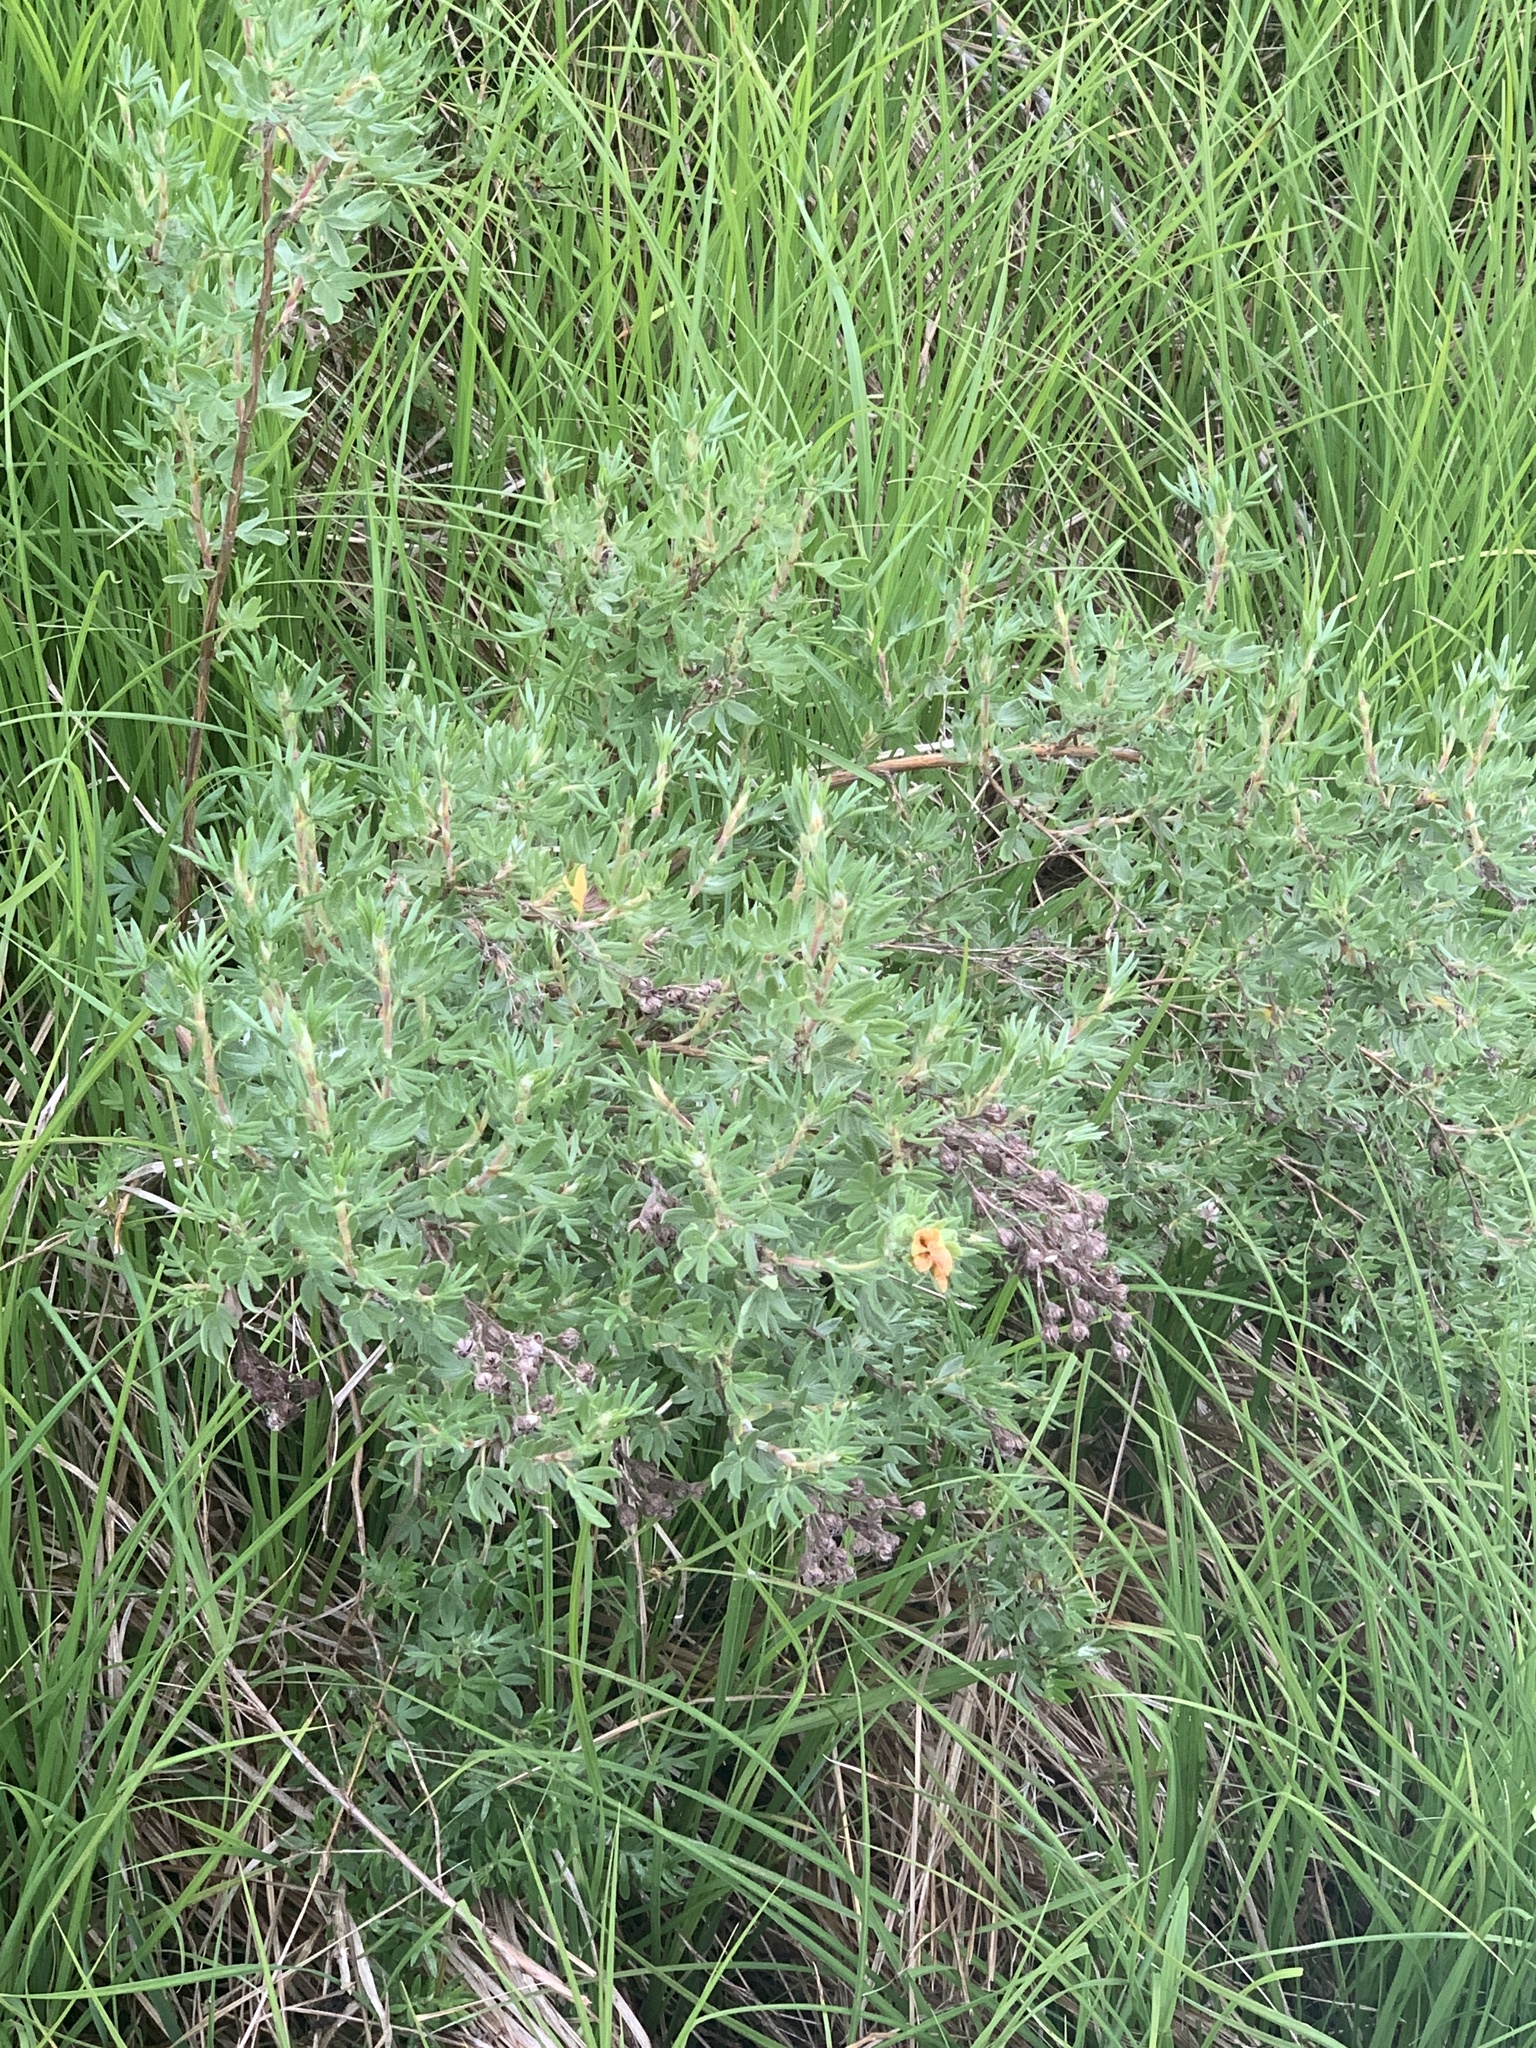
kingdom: Plantae
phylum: Tracheophyta
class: Magnoliopsida
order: Rosales
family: Rosaceae
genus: Dasiphora
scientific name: Dasiphora fruticosa
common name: Shrubby cinquefoil
